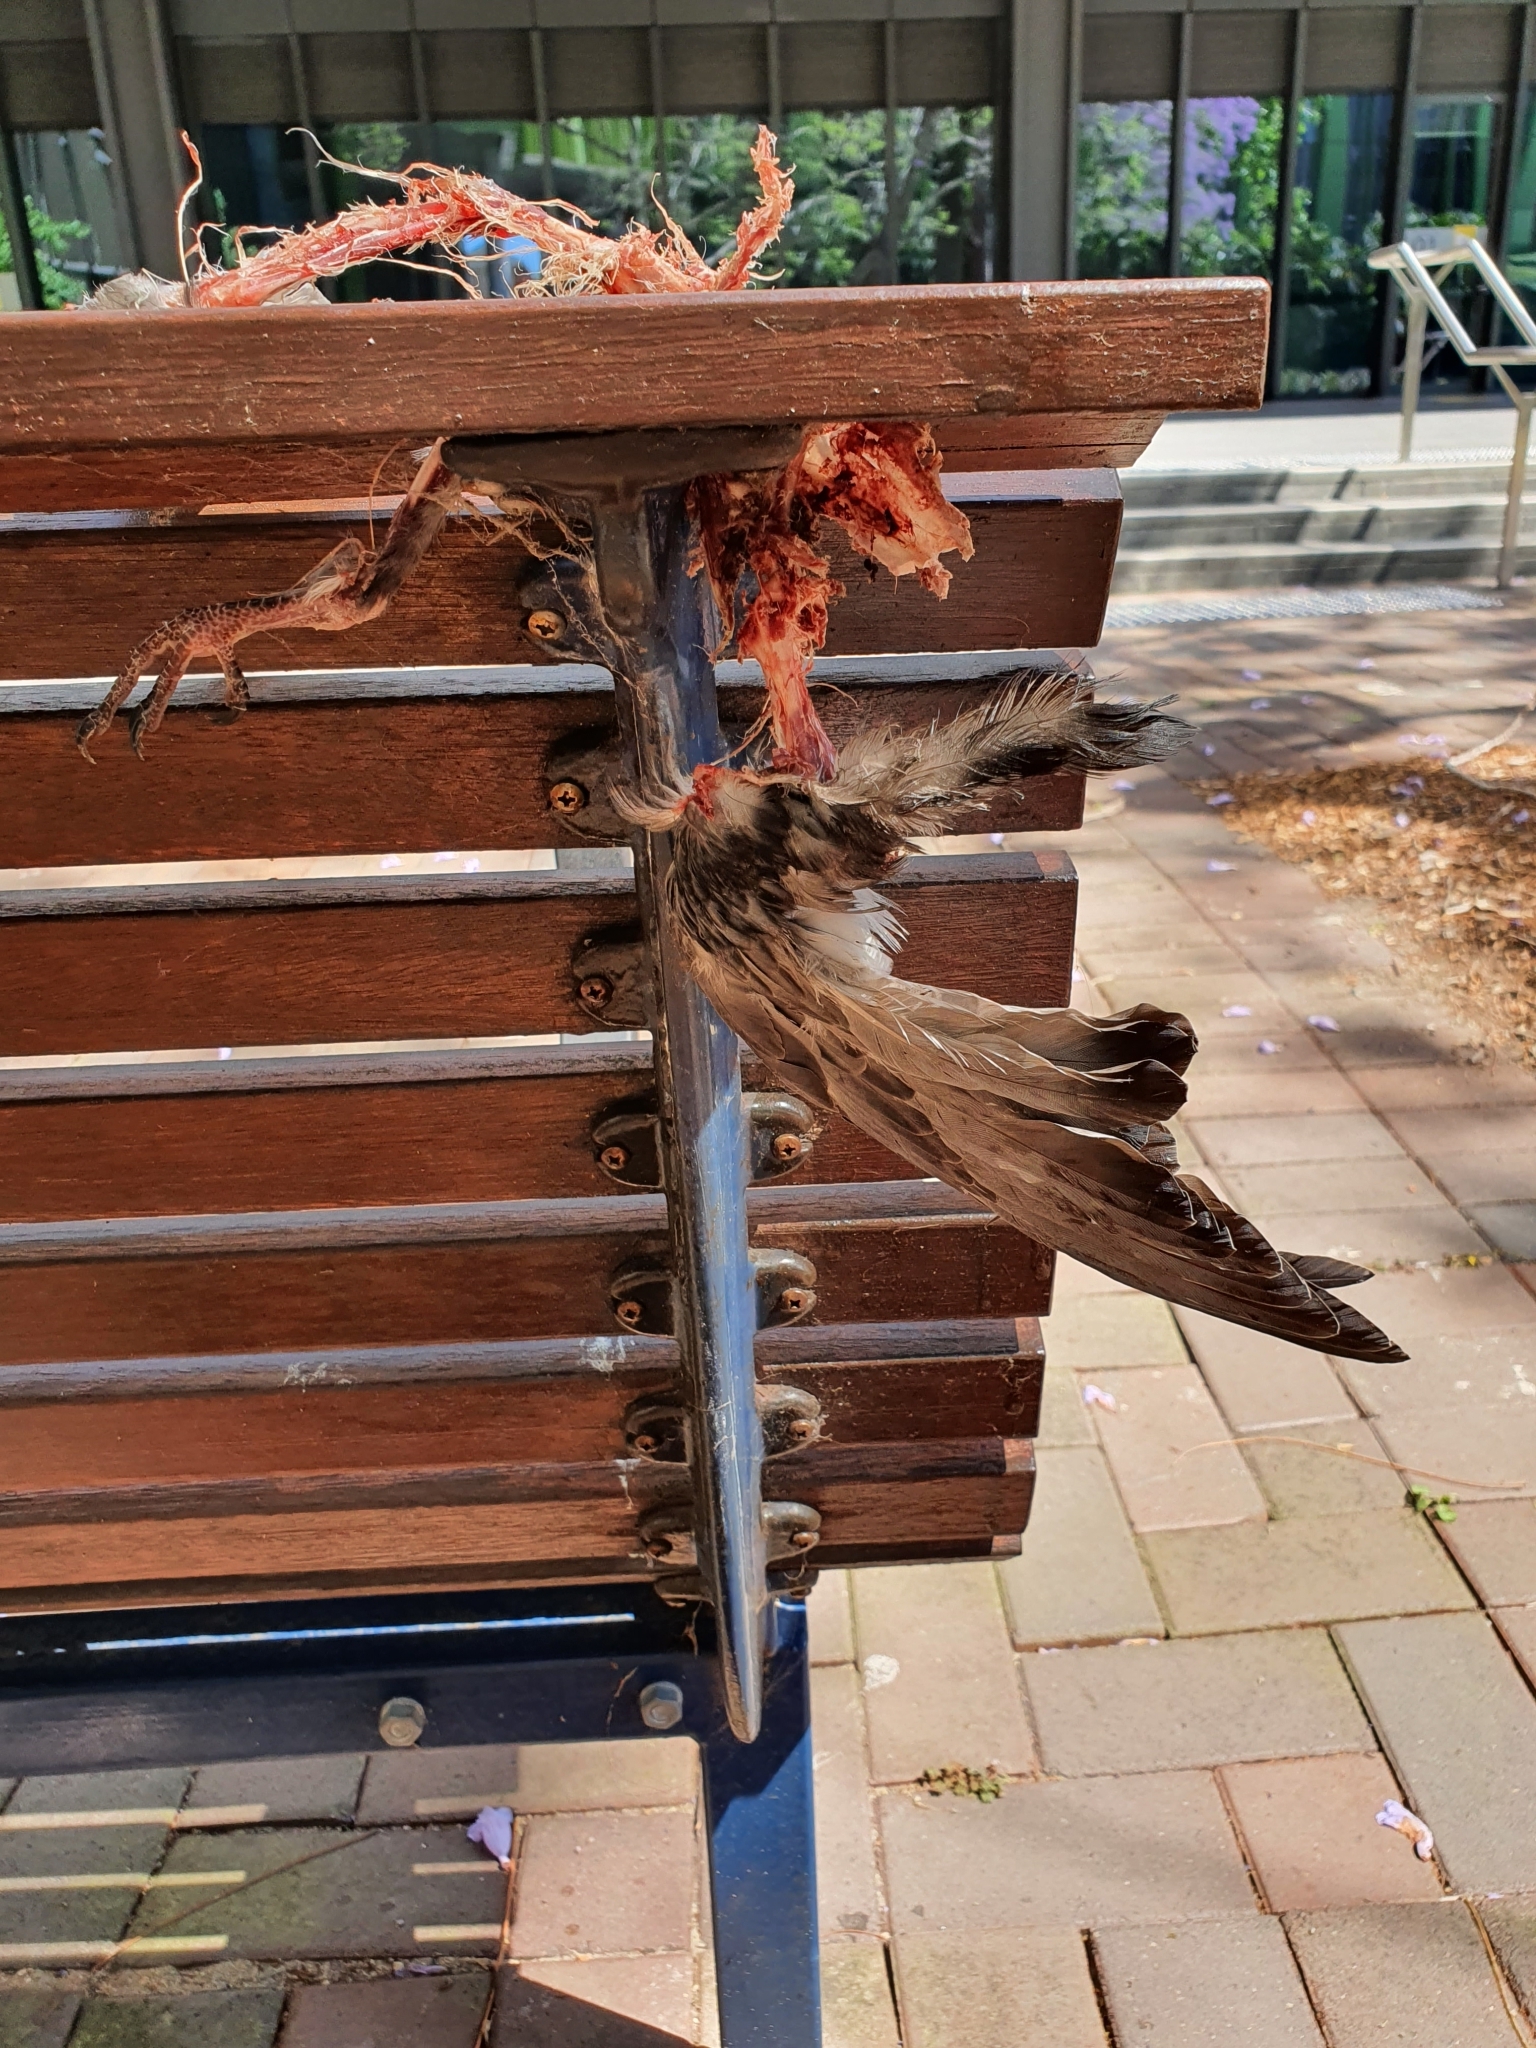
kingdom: Animalia
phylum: Chordata
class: Aves
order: Columbiformes
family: Columbidae
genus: Columba
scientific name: Columba livia
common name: Rock pigeon
